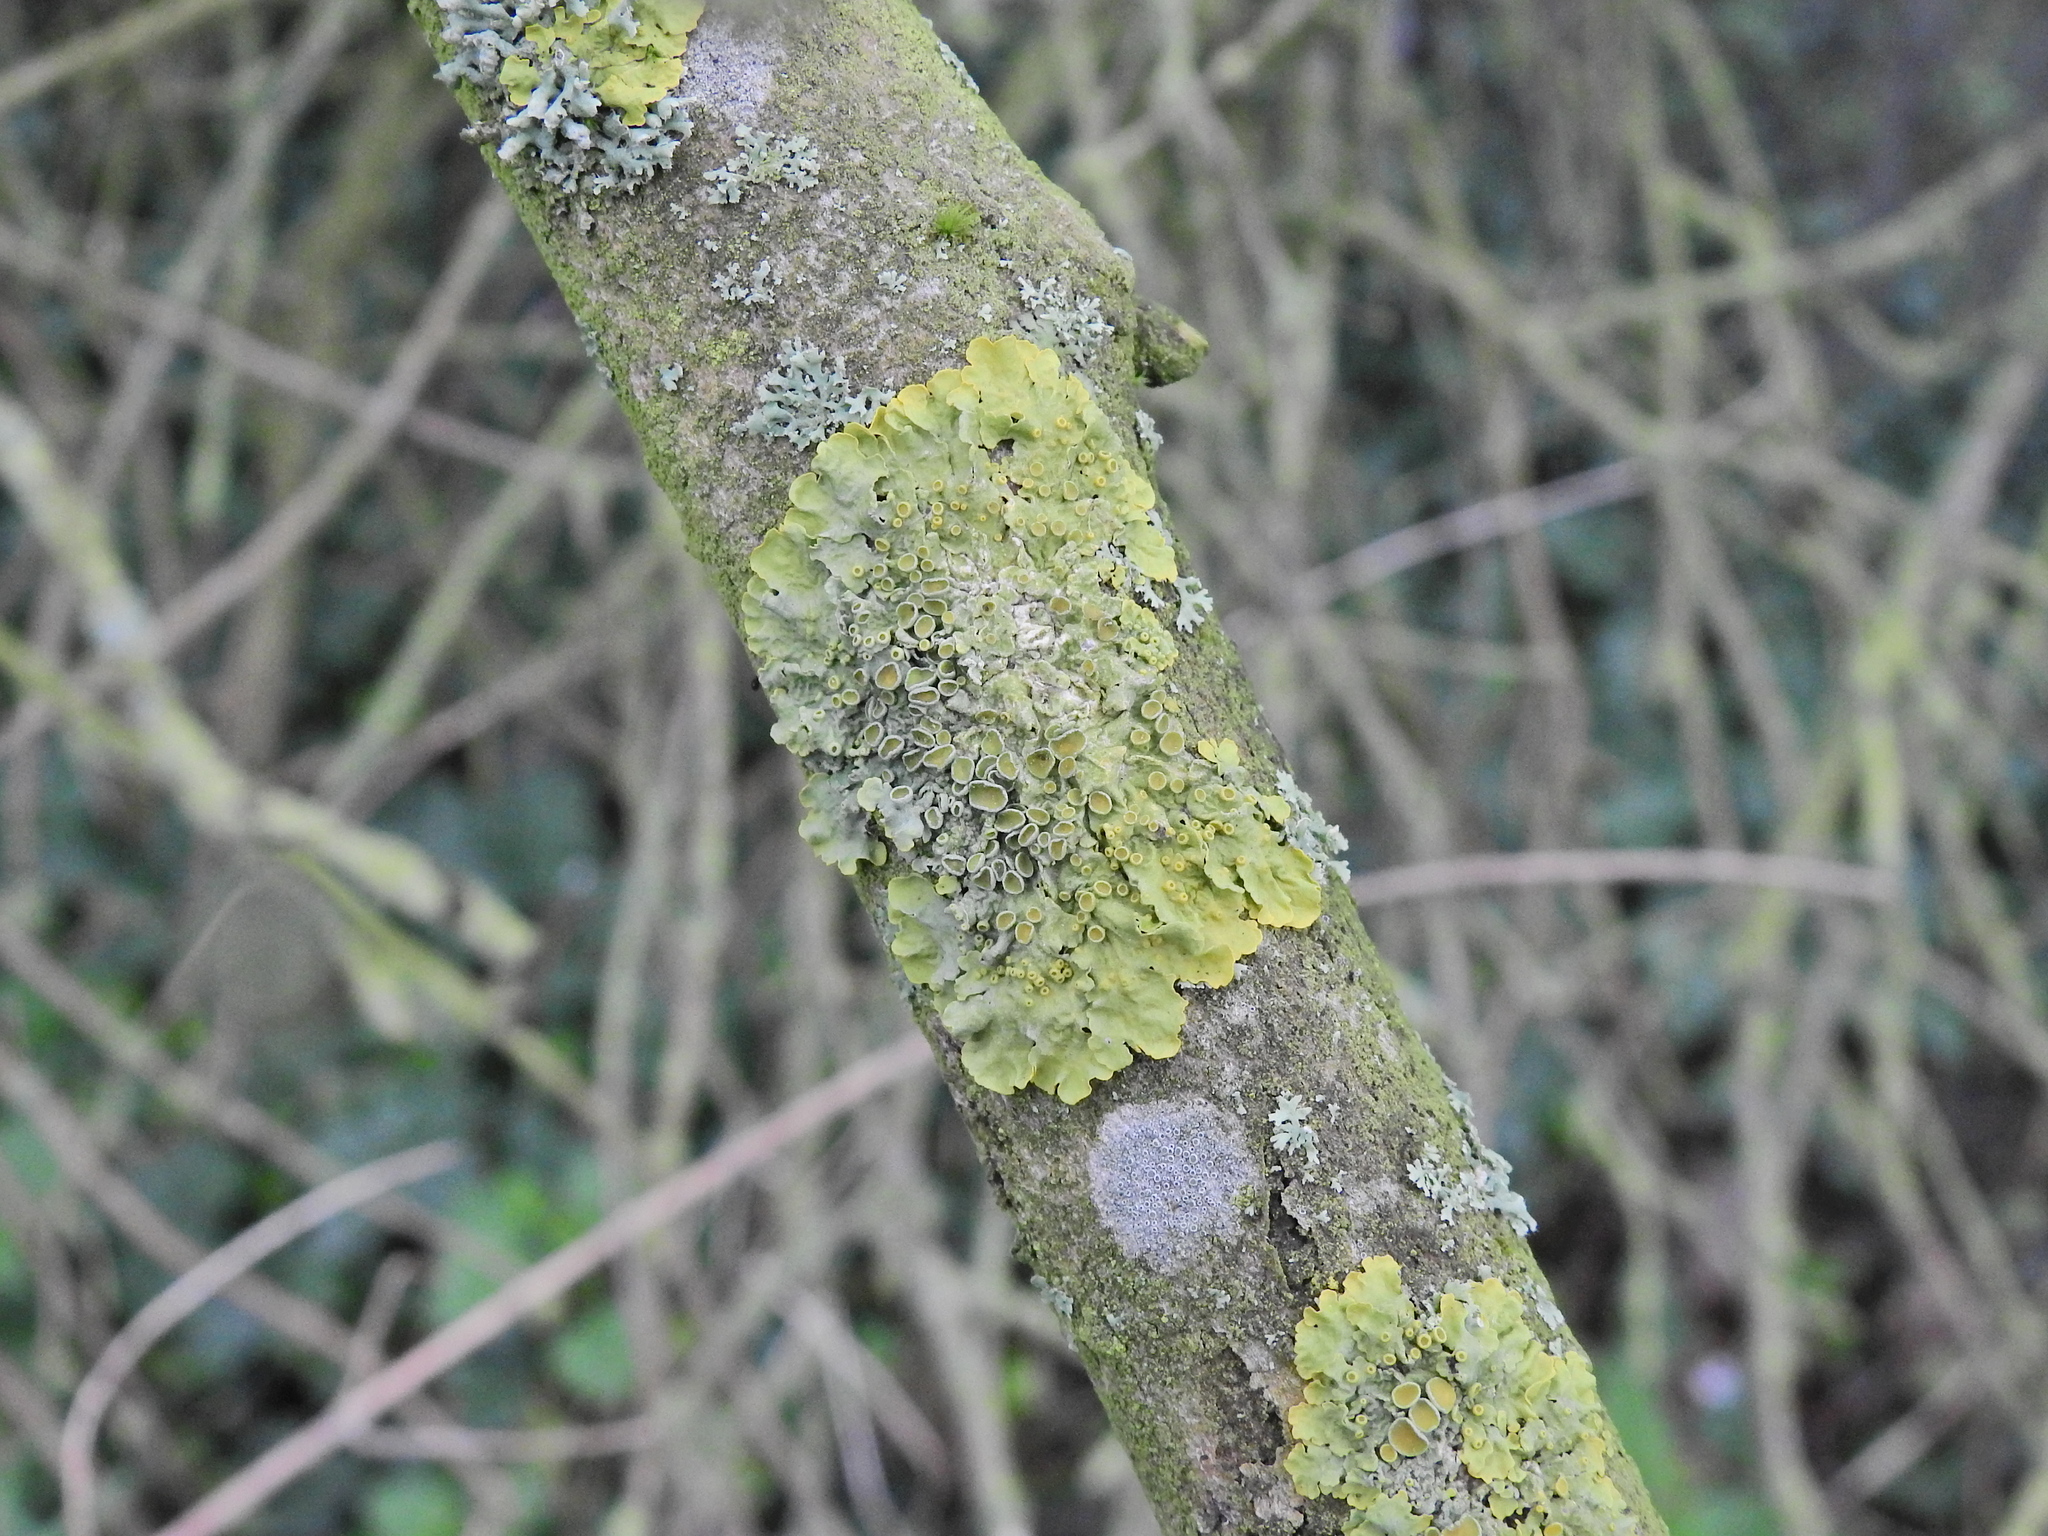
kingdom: Fungi
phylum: Ascomycota
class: Lecanoromycetes
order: Teloschistales
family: Teloschistaceae
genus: Xanthoria
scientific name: Xanthoria parietina
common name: Common orange lichen
